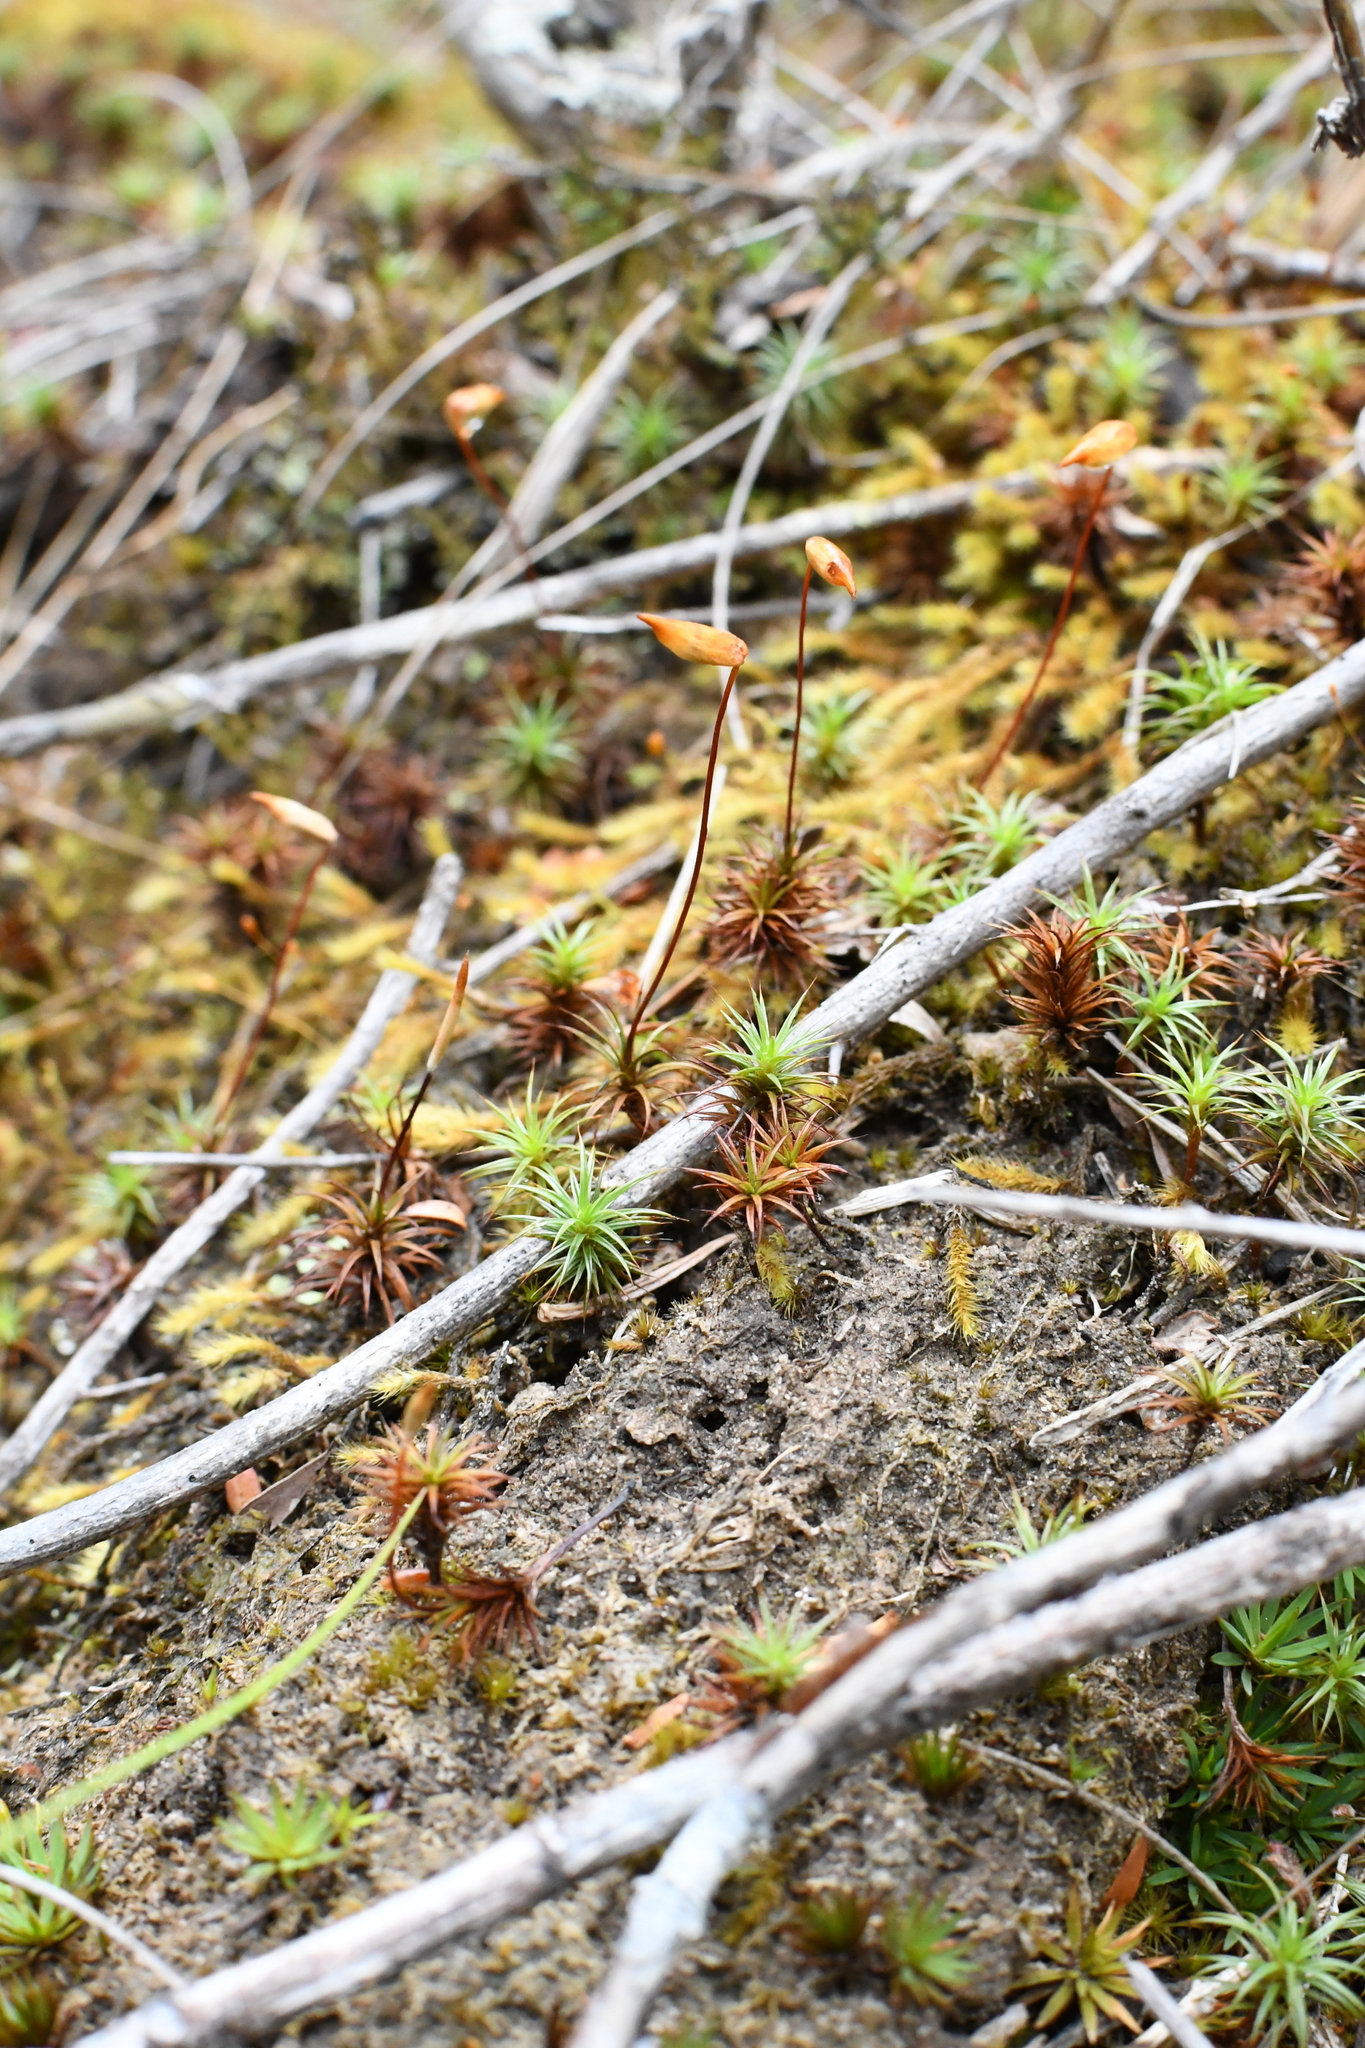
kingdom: Plantae
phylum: Bryophyta
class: Polytrichopsida
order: Polytrichales
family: Polytrichaceae
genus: Polytrichum
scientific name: Polytrichum juniperinum
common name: Juniper haircap moss
